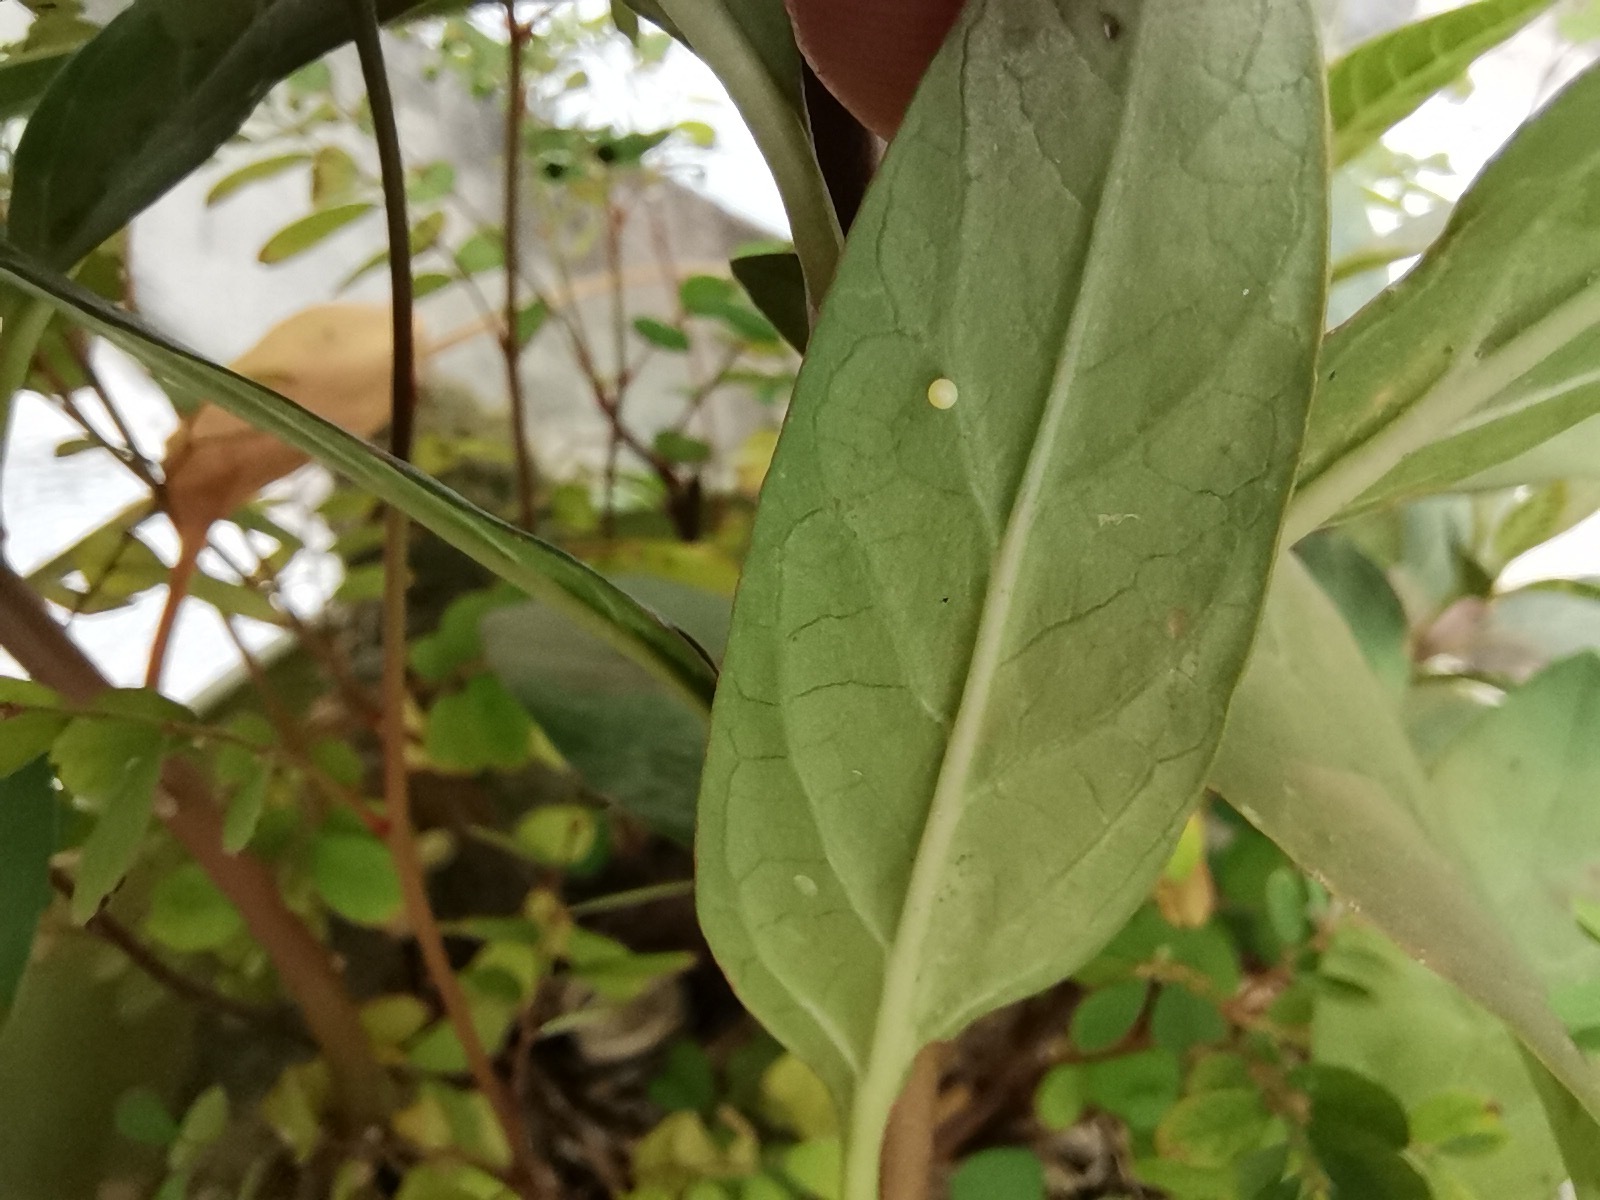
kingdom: Animalia
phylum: Arthropoda
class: Insecta
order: Lepidoptera
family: Nymphalidae
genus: Danaus
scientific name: Danaus plexippus
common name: Monarch
